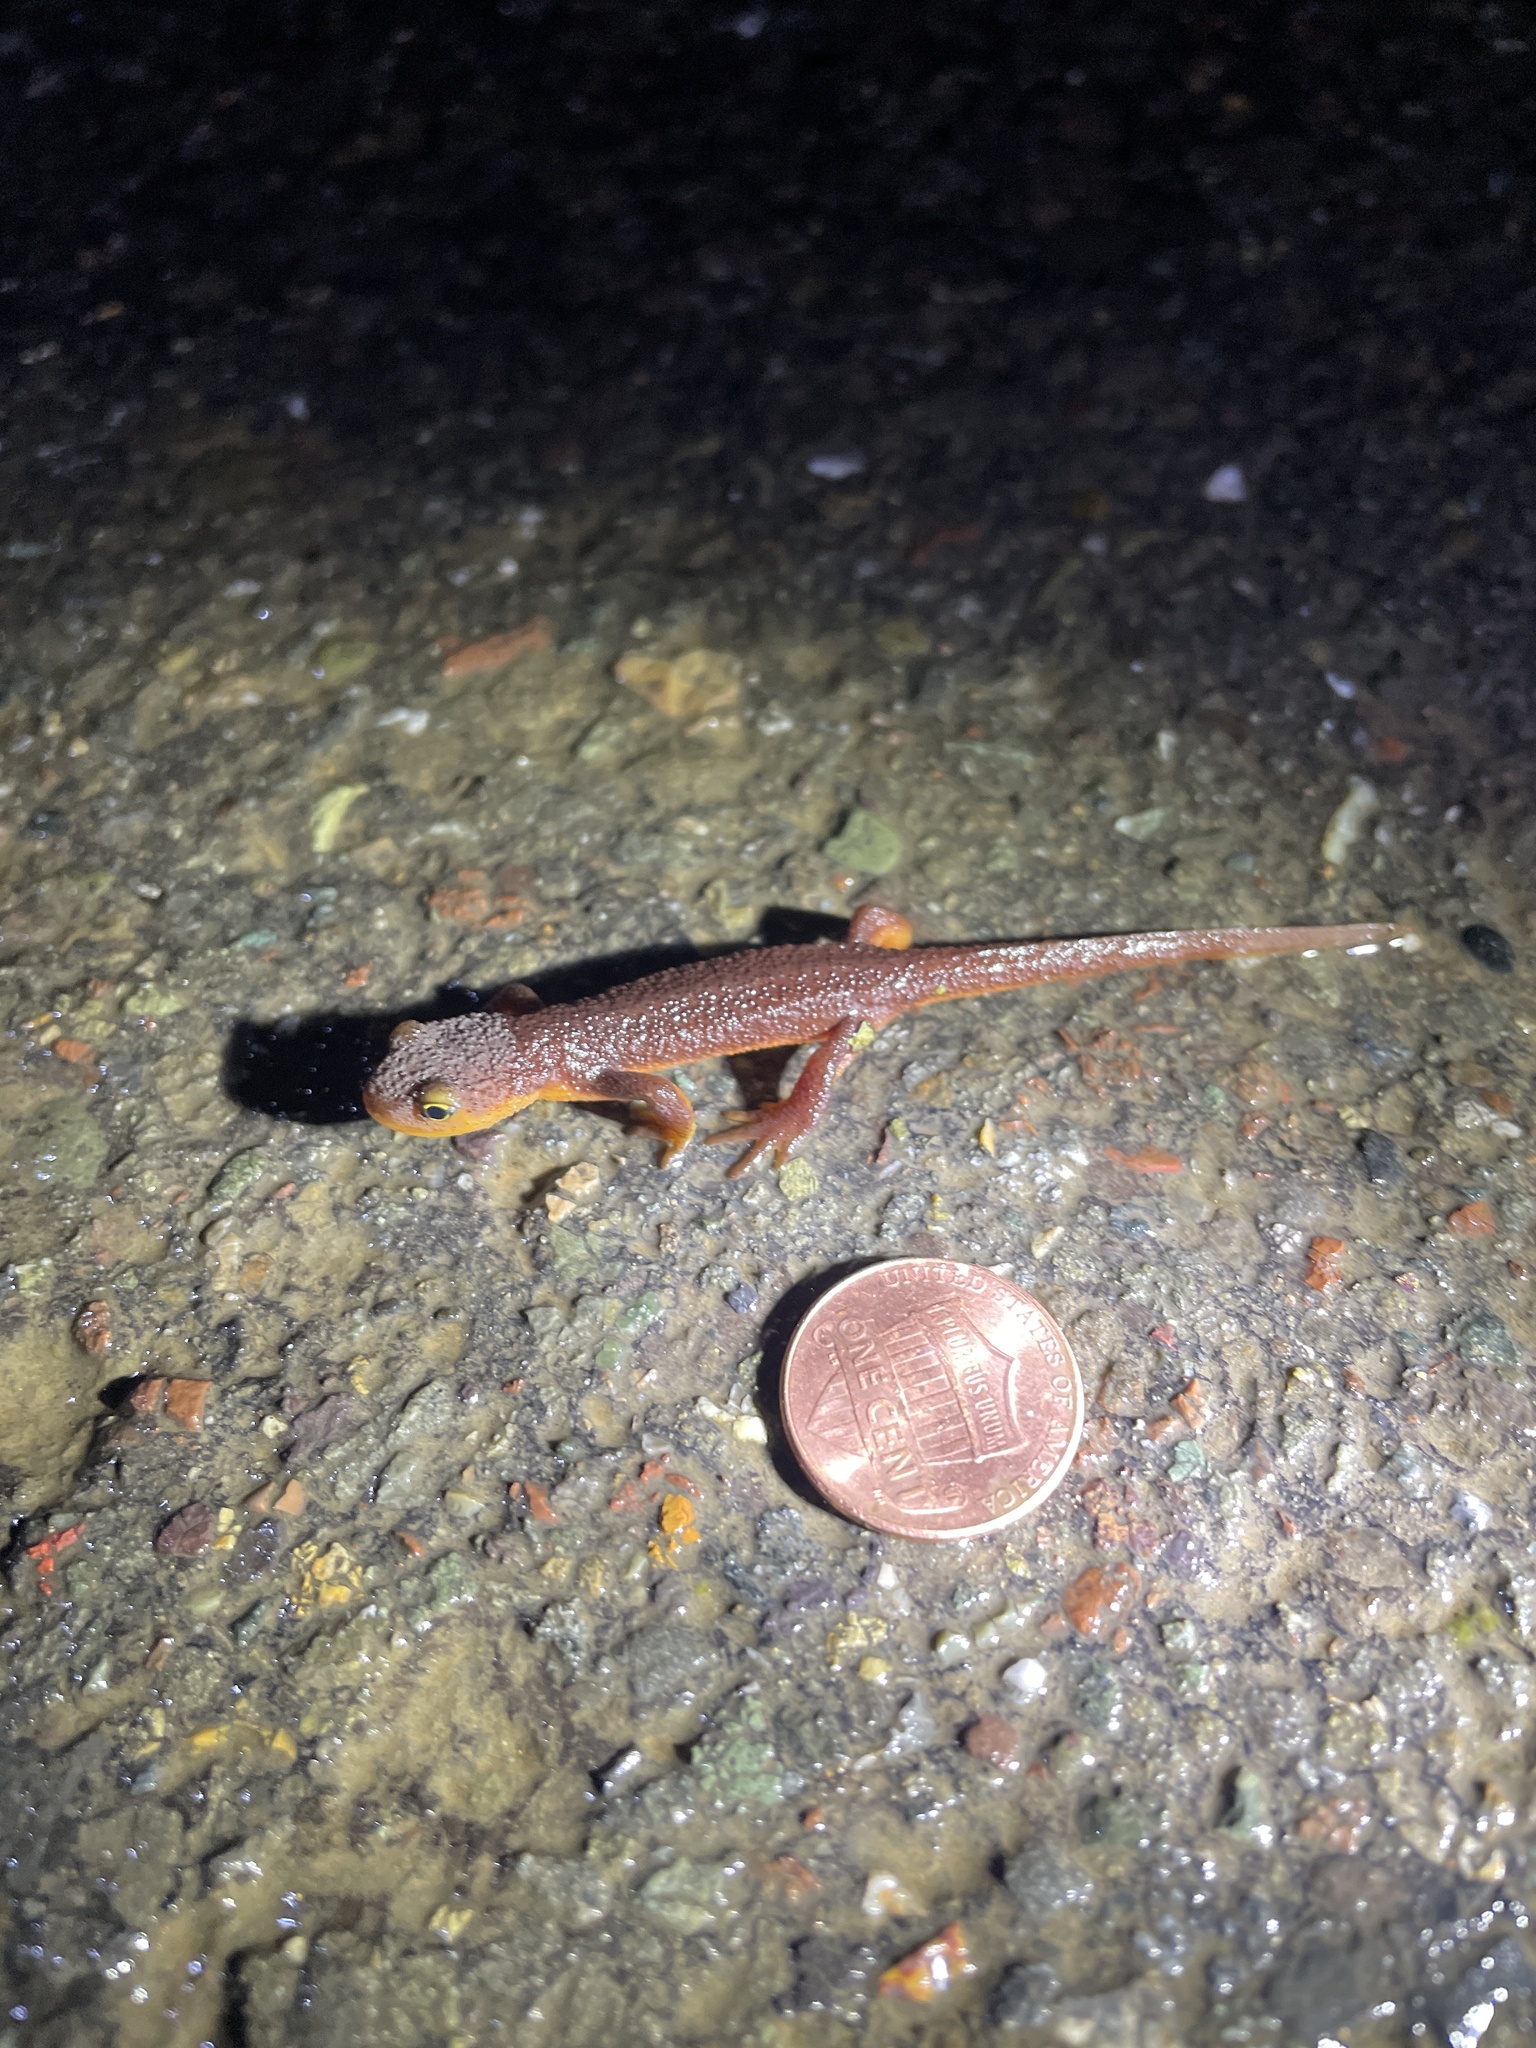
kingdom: Animalia
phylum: Chordata
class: Amphibia
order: Caudata
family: Salamandridae
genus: Taricha
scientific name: Taricha torosa
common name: California newt
